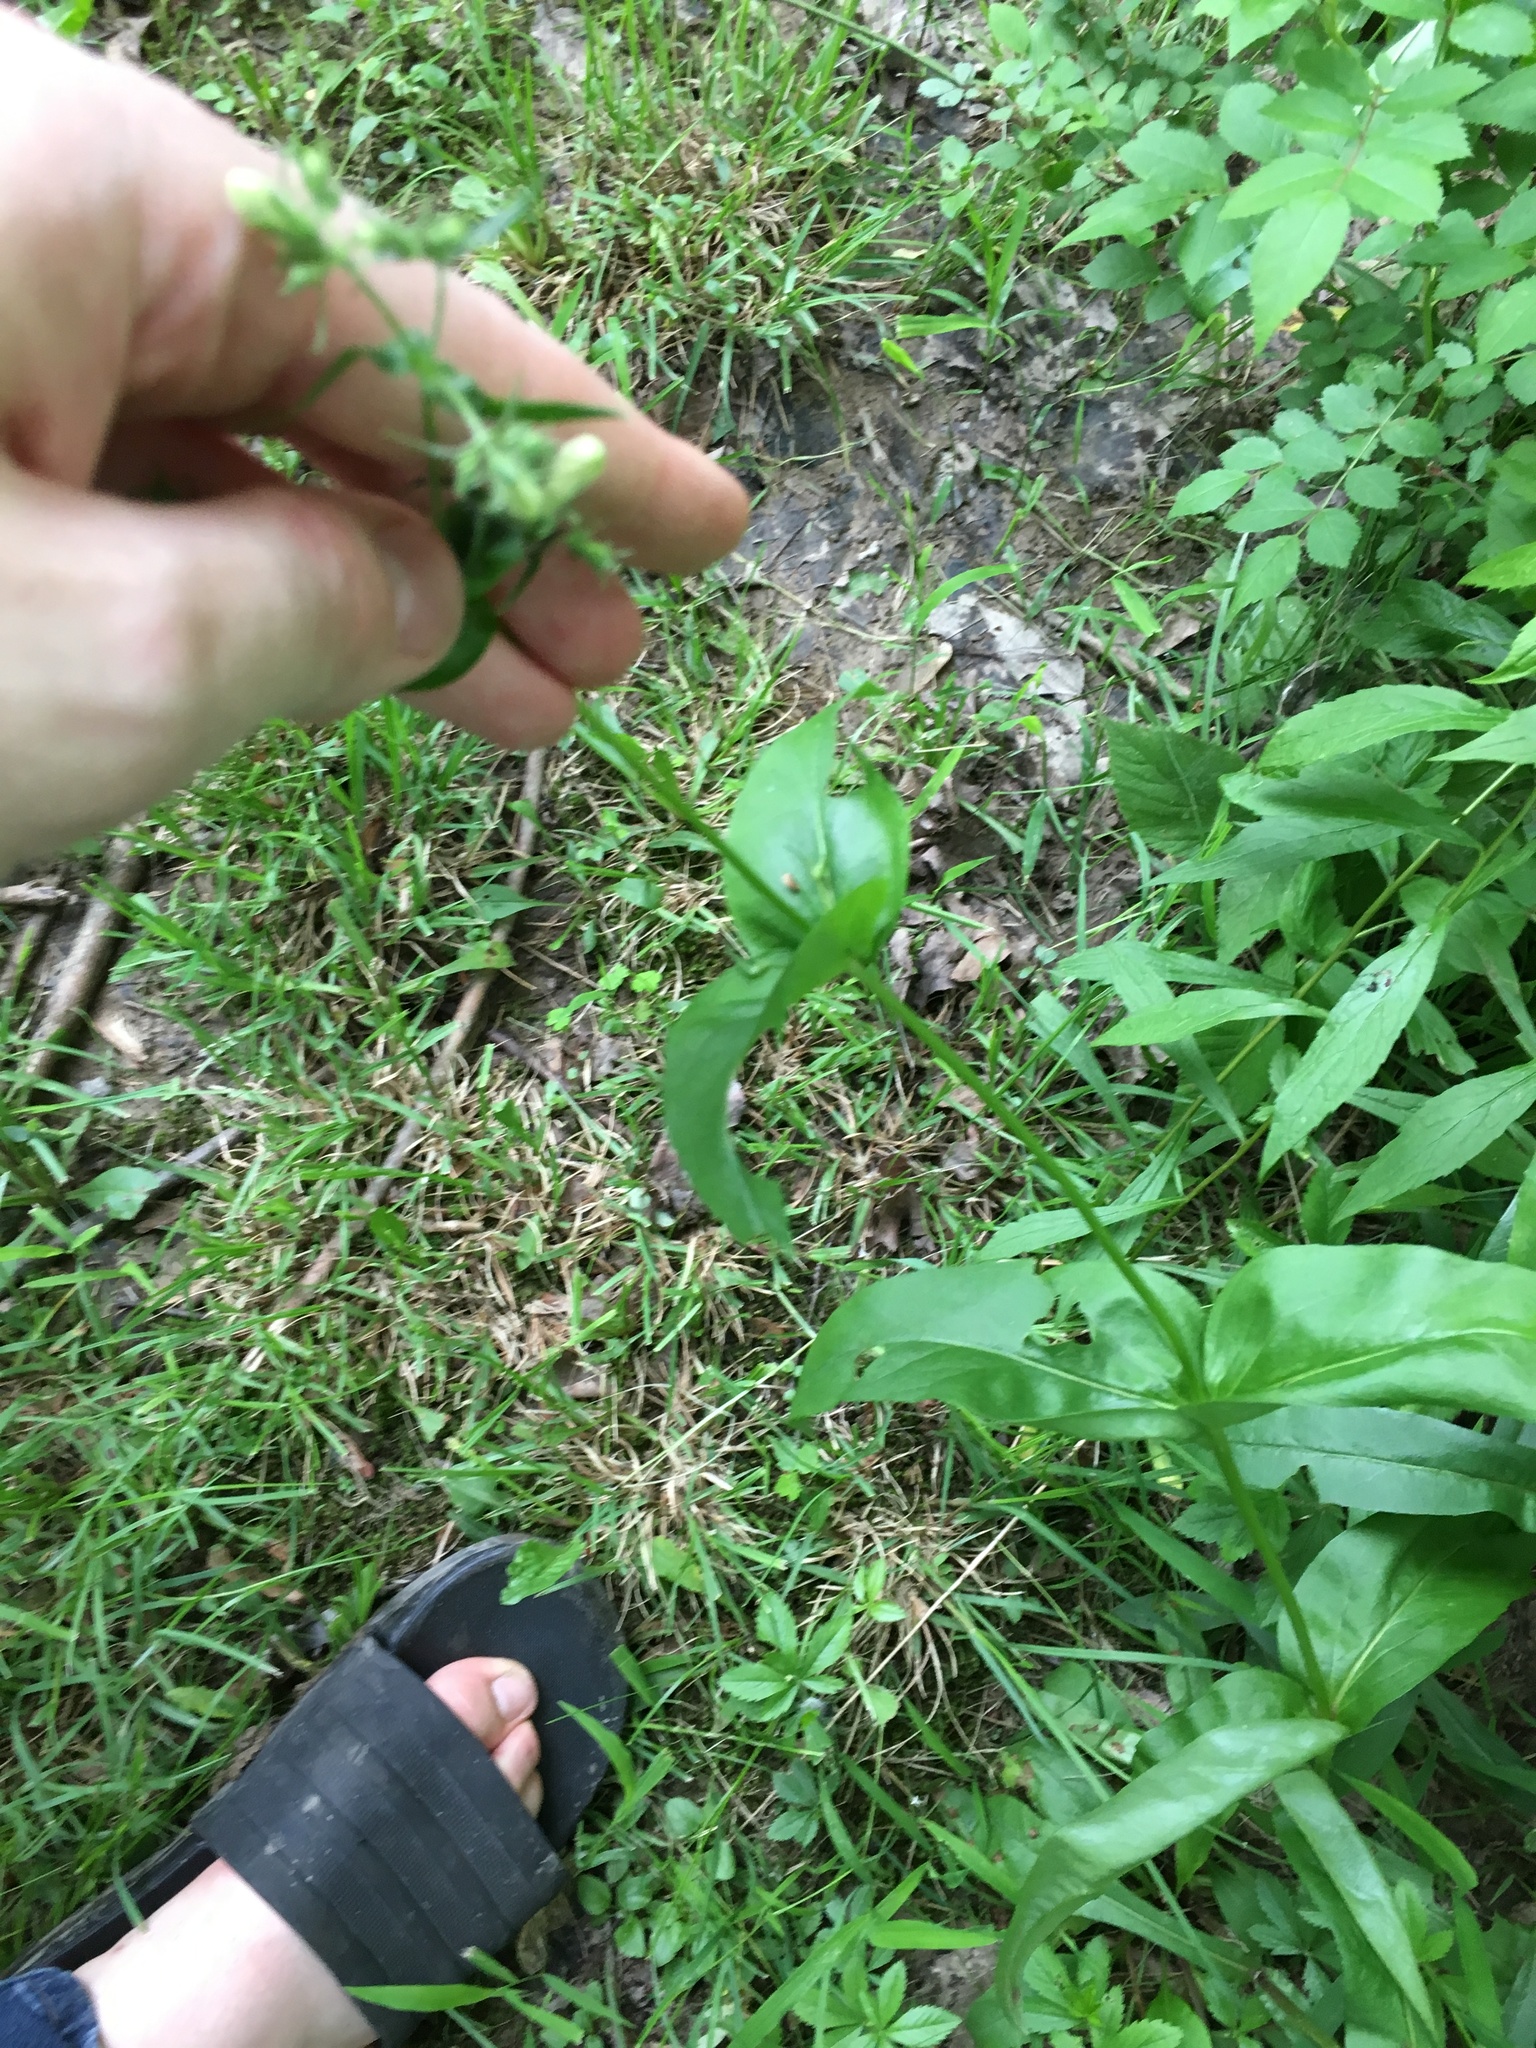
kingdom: Plantae
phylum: Tracheophyta
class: Magnoliopsida
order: Lamiales
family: Plantaginaceae
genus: Penstemon
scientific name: Penstemon digitalis
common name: Foxglove beardtongue
